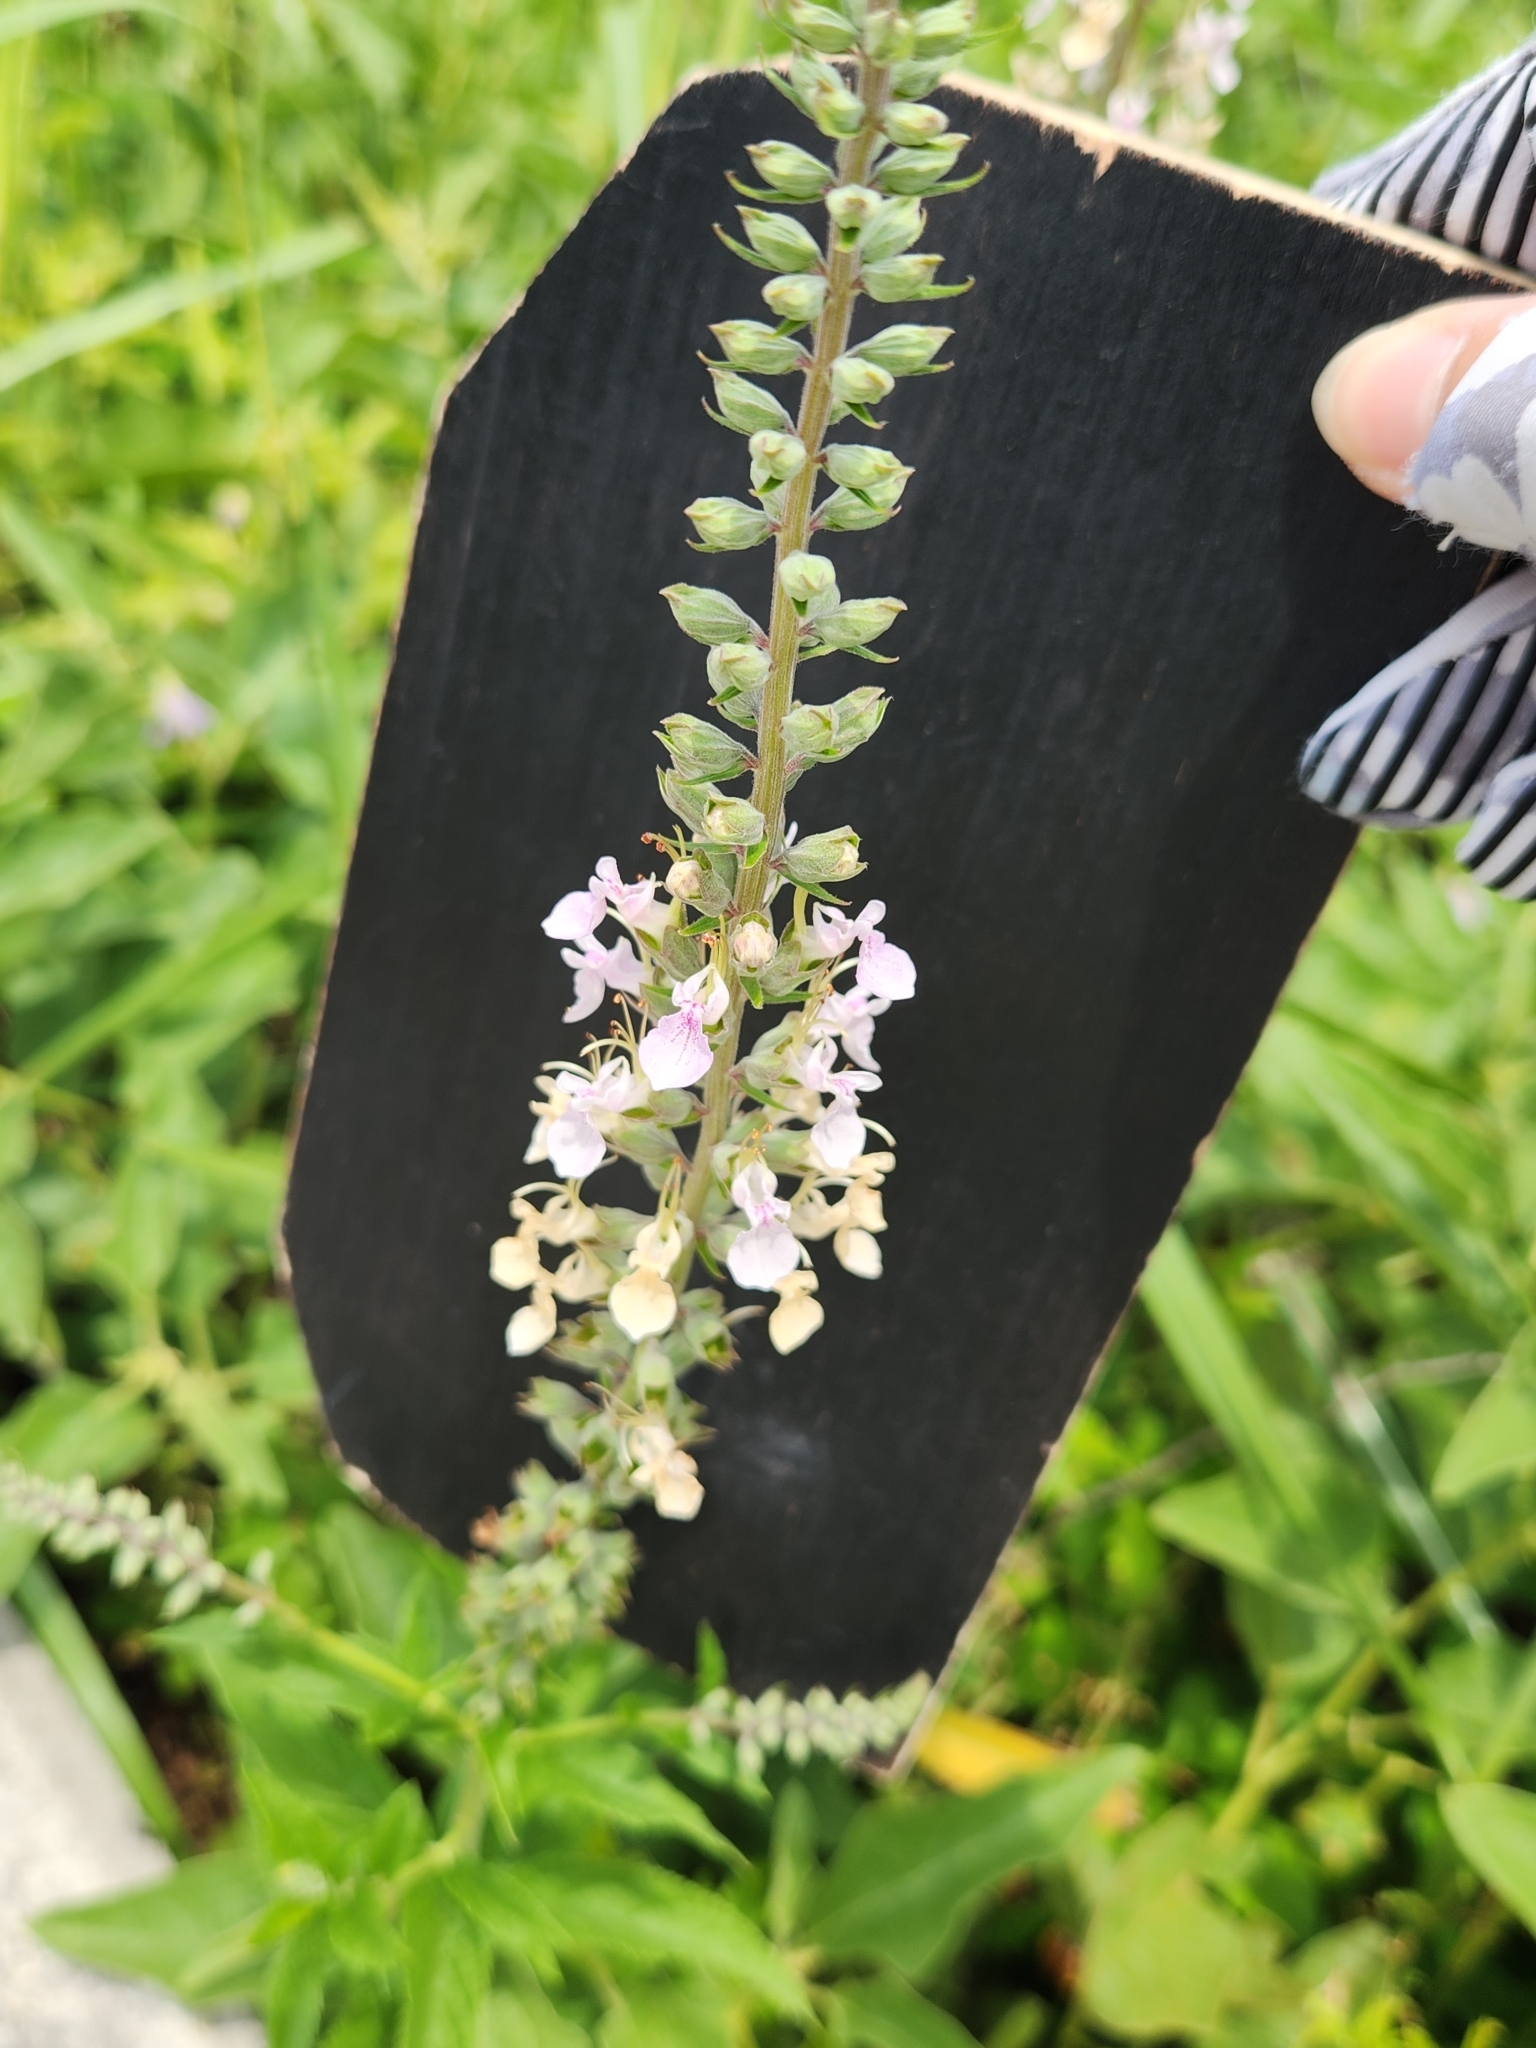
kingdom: Plantae
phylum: Tracheophyta
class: Magnoliopsida
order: Lamiales
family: Lamiaceae
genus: Teucrium
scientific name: Teucrium canadense
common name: American germander
